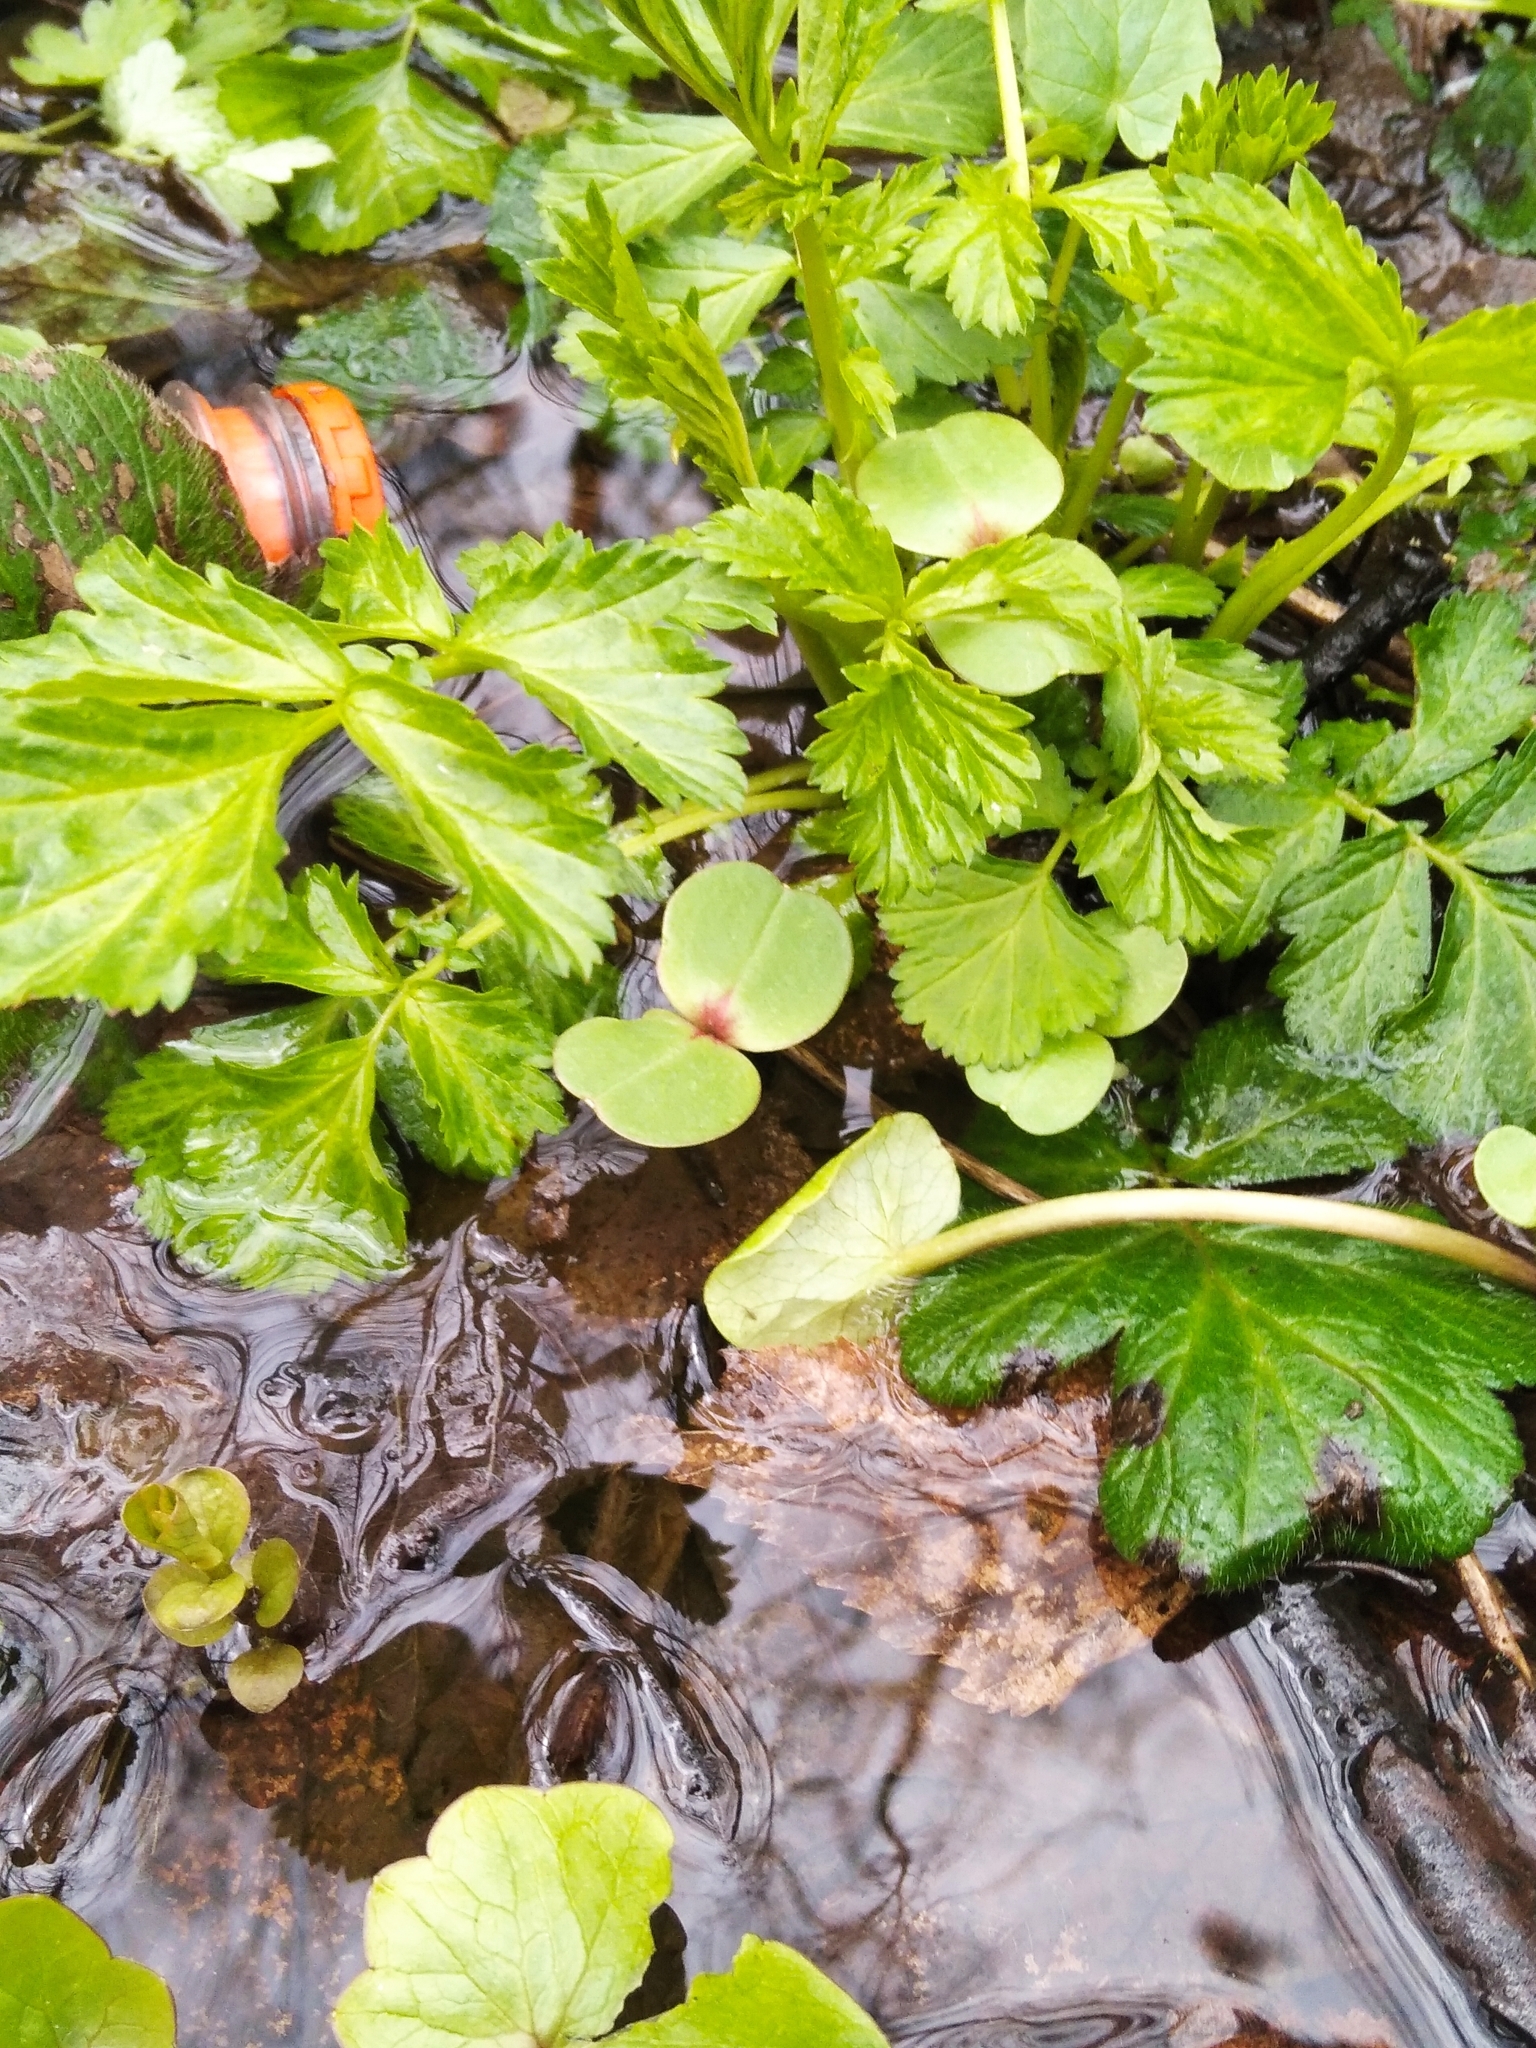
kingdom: Plantae
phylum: Tracheophyta
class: Magnoliopsida
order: Ericales
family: Balsaminaceae
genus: Impatiens
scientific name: Impatiens glandulifera
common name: Himalayan balsam
